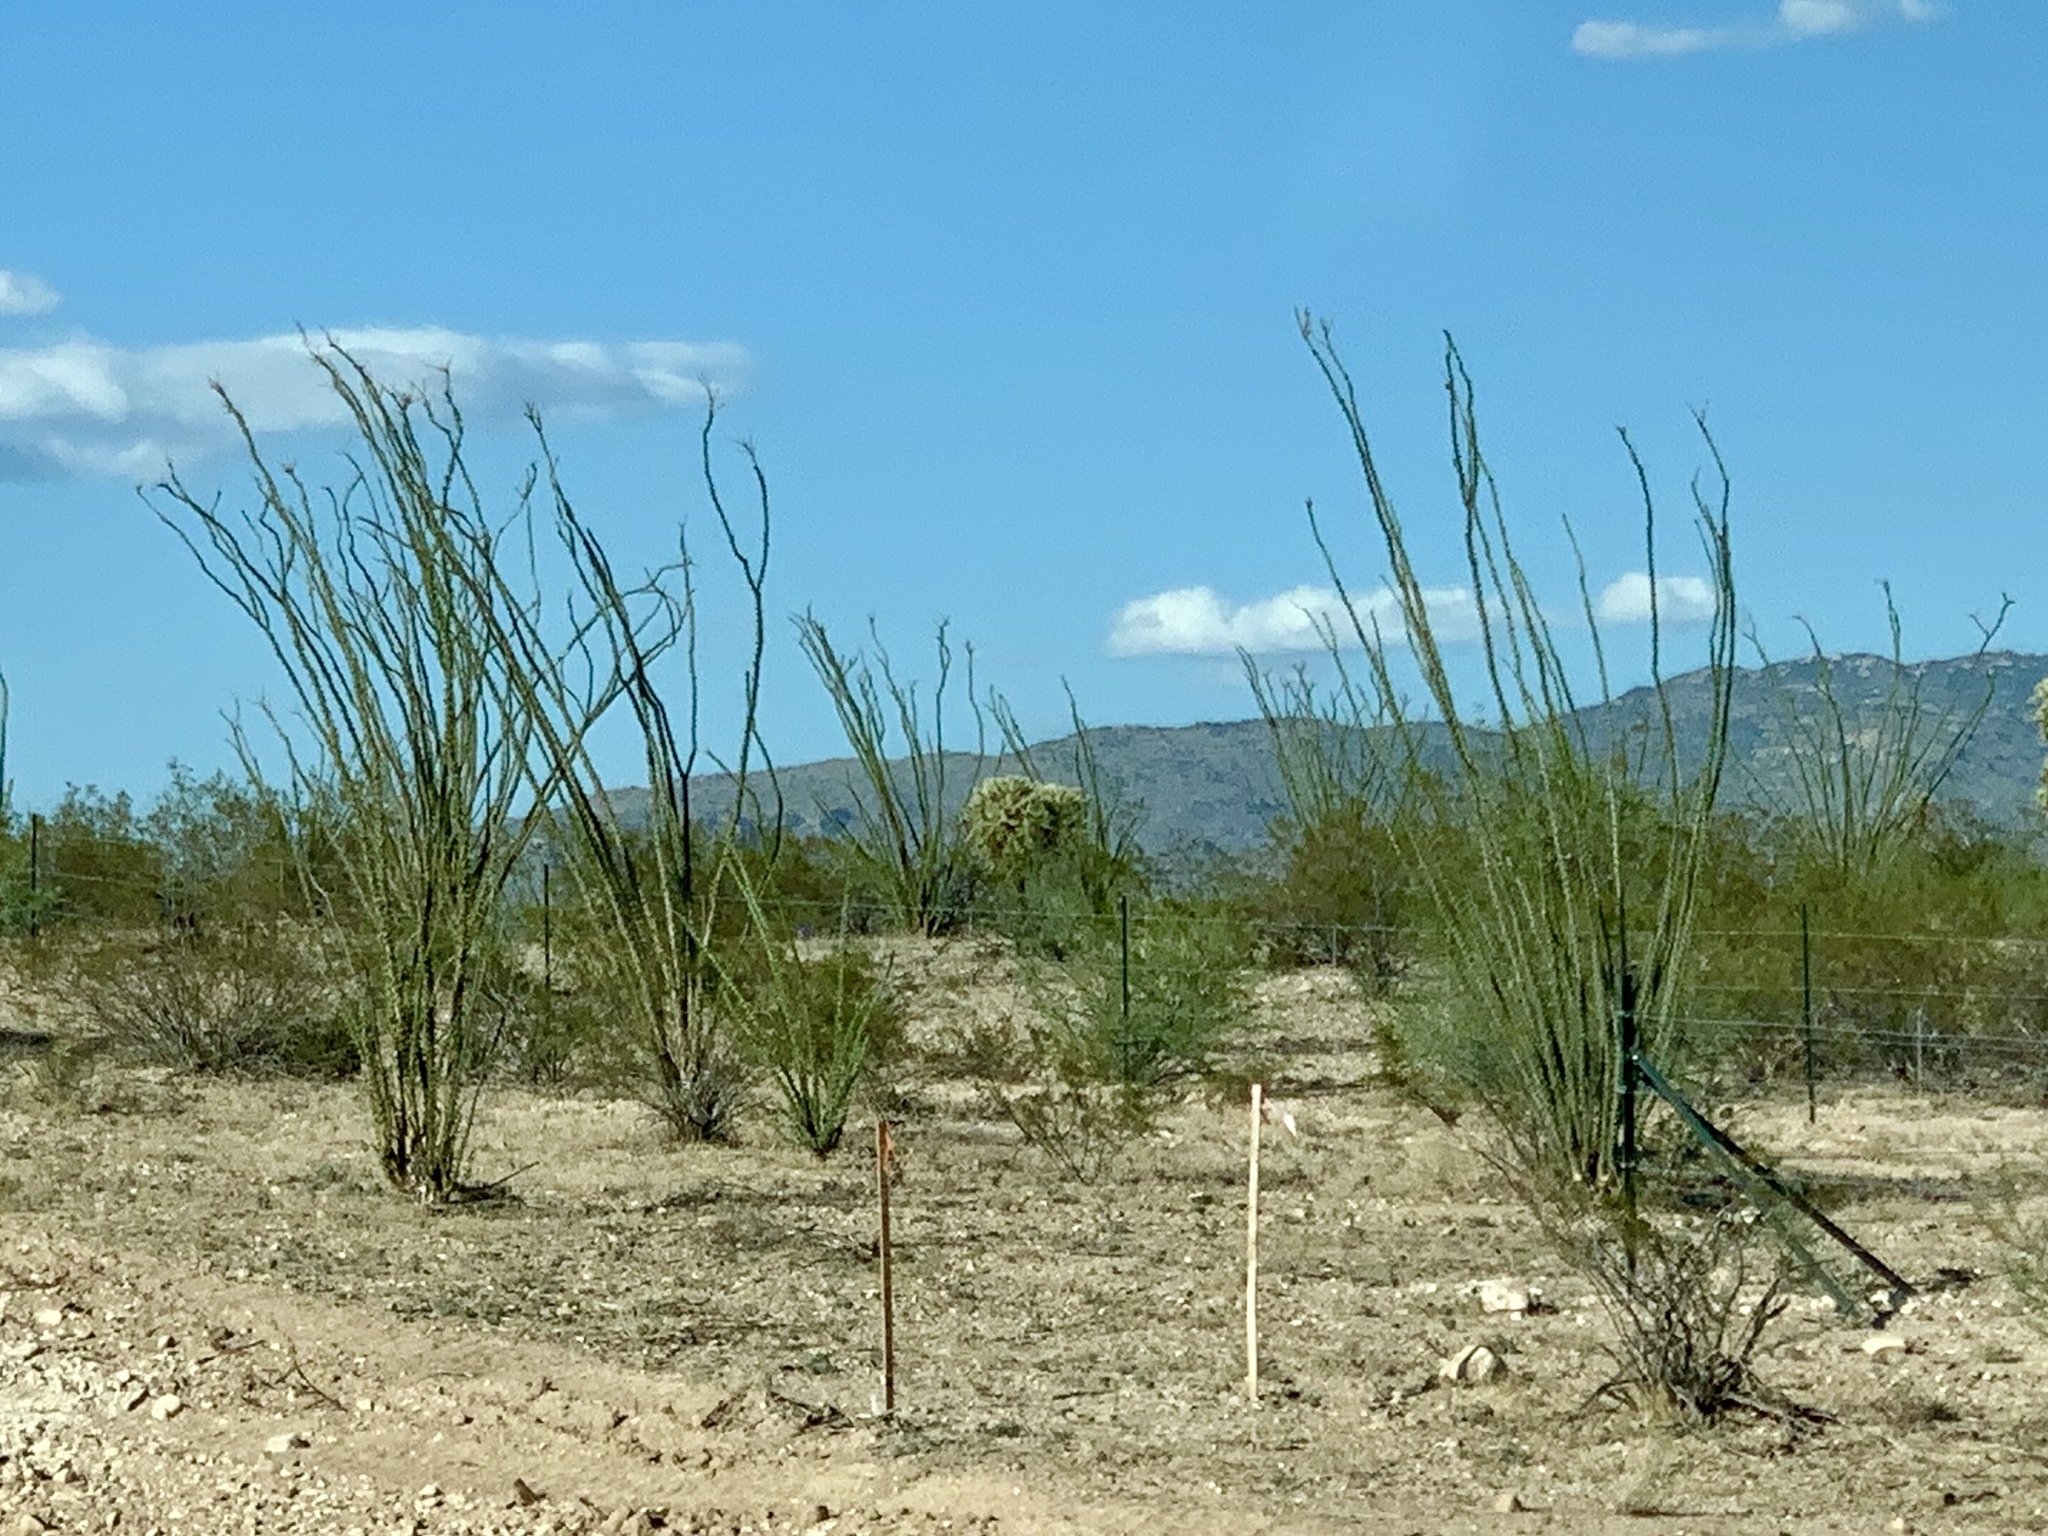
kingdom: Plantae
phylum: Tracheophyta
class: Magnoliopsida
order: Ericales
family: Fouquieriaceae
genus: Fouquieria
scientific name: Fouquieria splendens
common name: Vine-cactus
